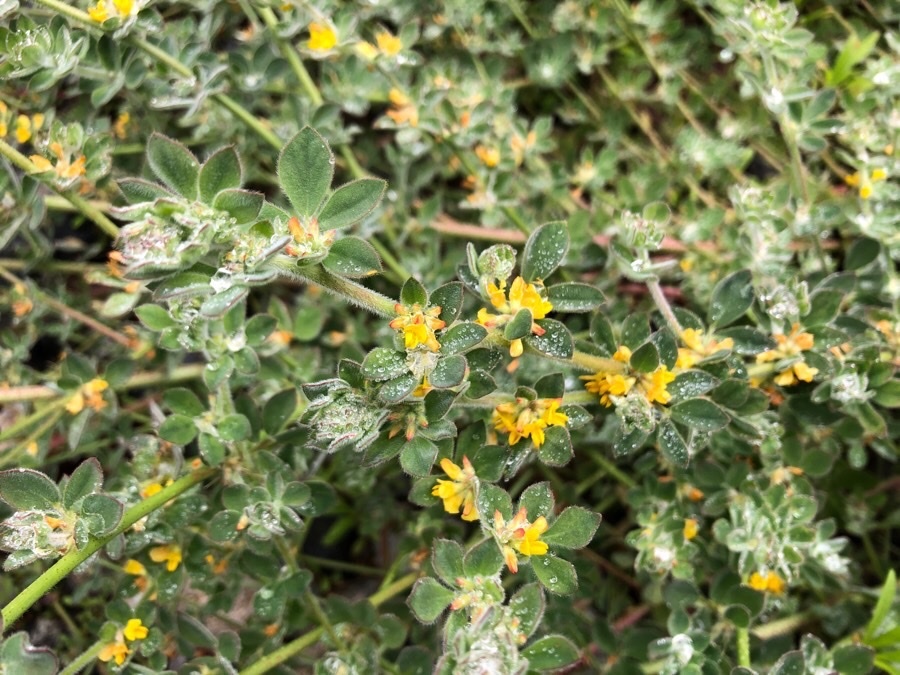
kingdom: Plantae
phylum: Tracheophyta
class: Magnoliopsida
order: Fabales
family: Fabaceae
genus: Acmispon
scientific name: Acmispon tomentosus
